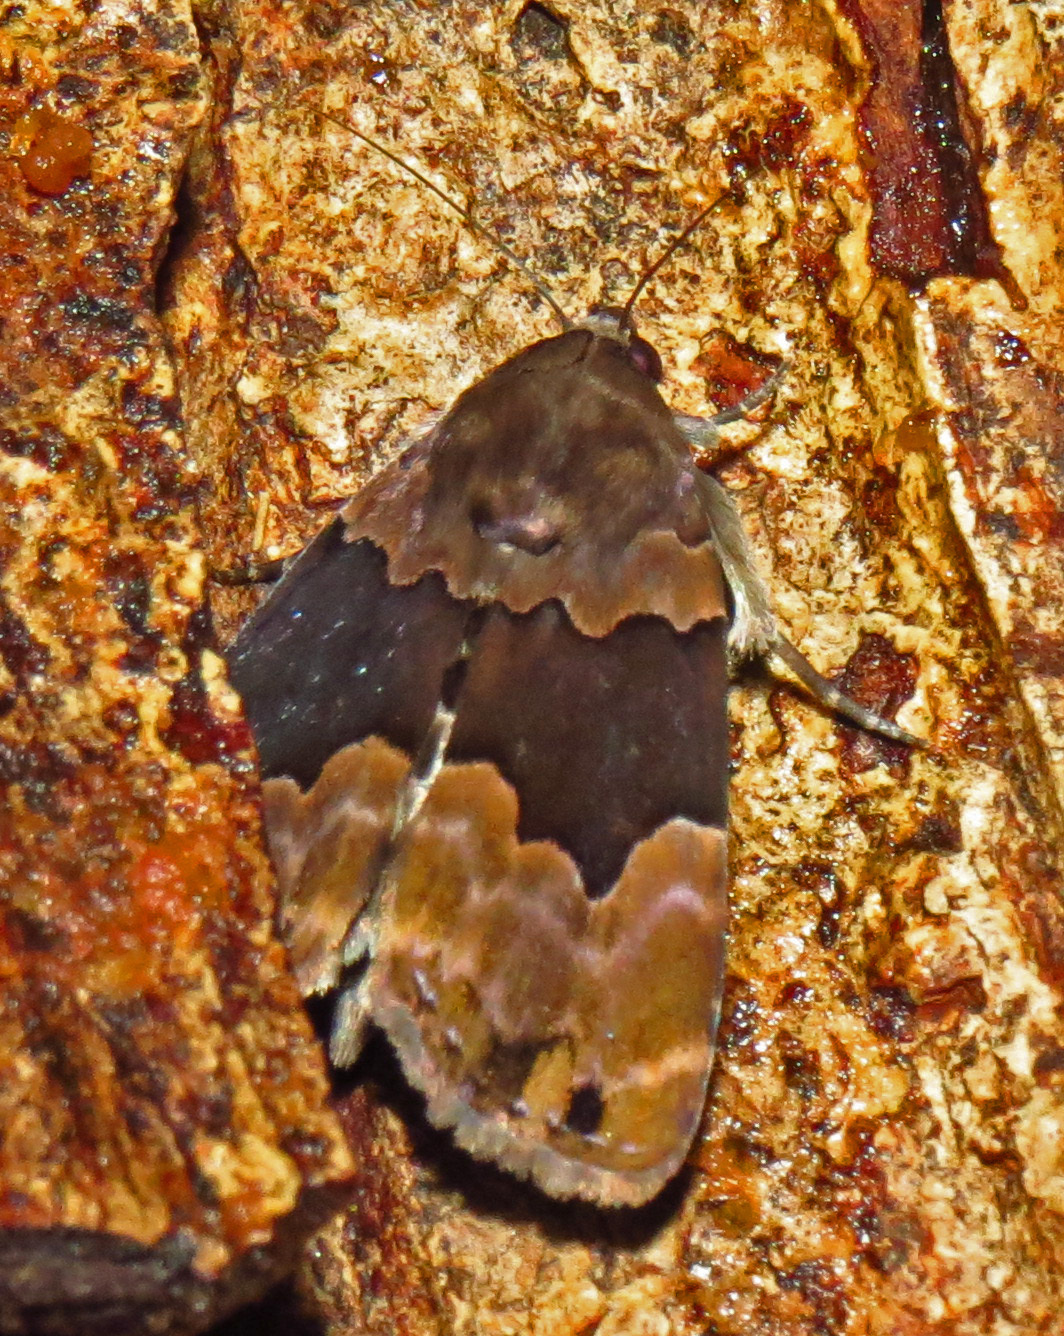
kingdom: Animalia
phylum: Arthropoda
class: Insecta
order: Lepidoptera
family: Erebidae
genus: Dinumma
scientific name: Dinumma deponens
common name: Purplish moth
